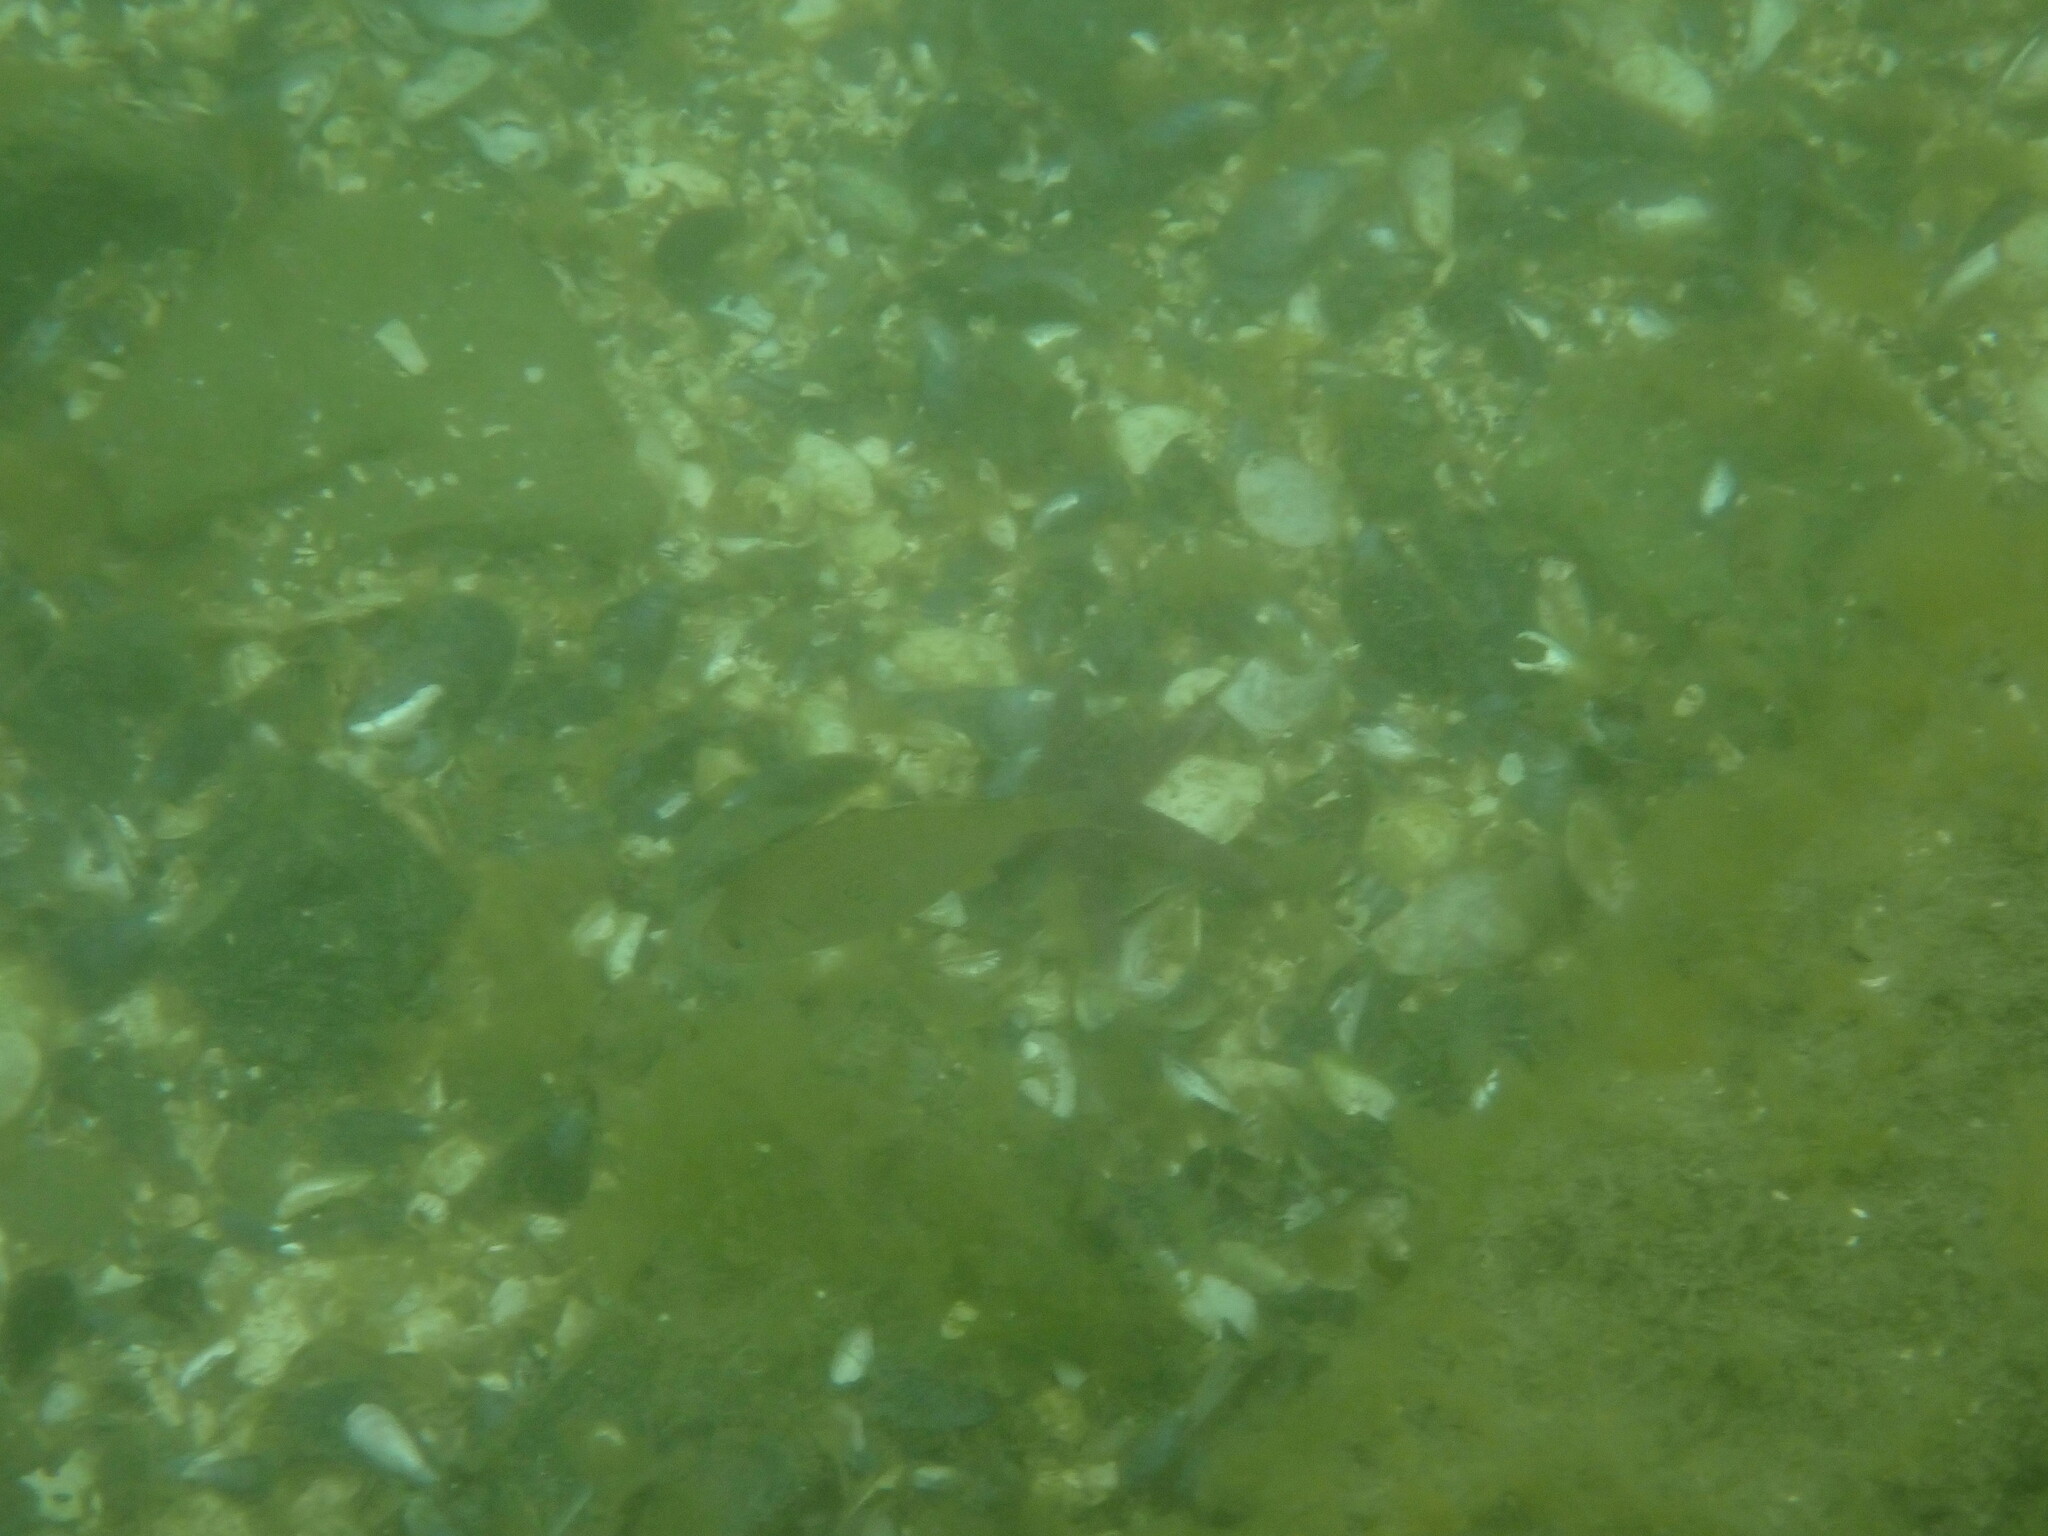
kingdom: Animalia
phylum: Chordata
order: Perciformes
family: Embiotocidae
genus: Cymatogaster
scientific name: Cymatogaster aggregata
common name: Shiner perch
